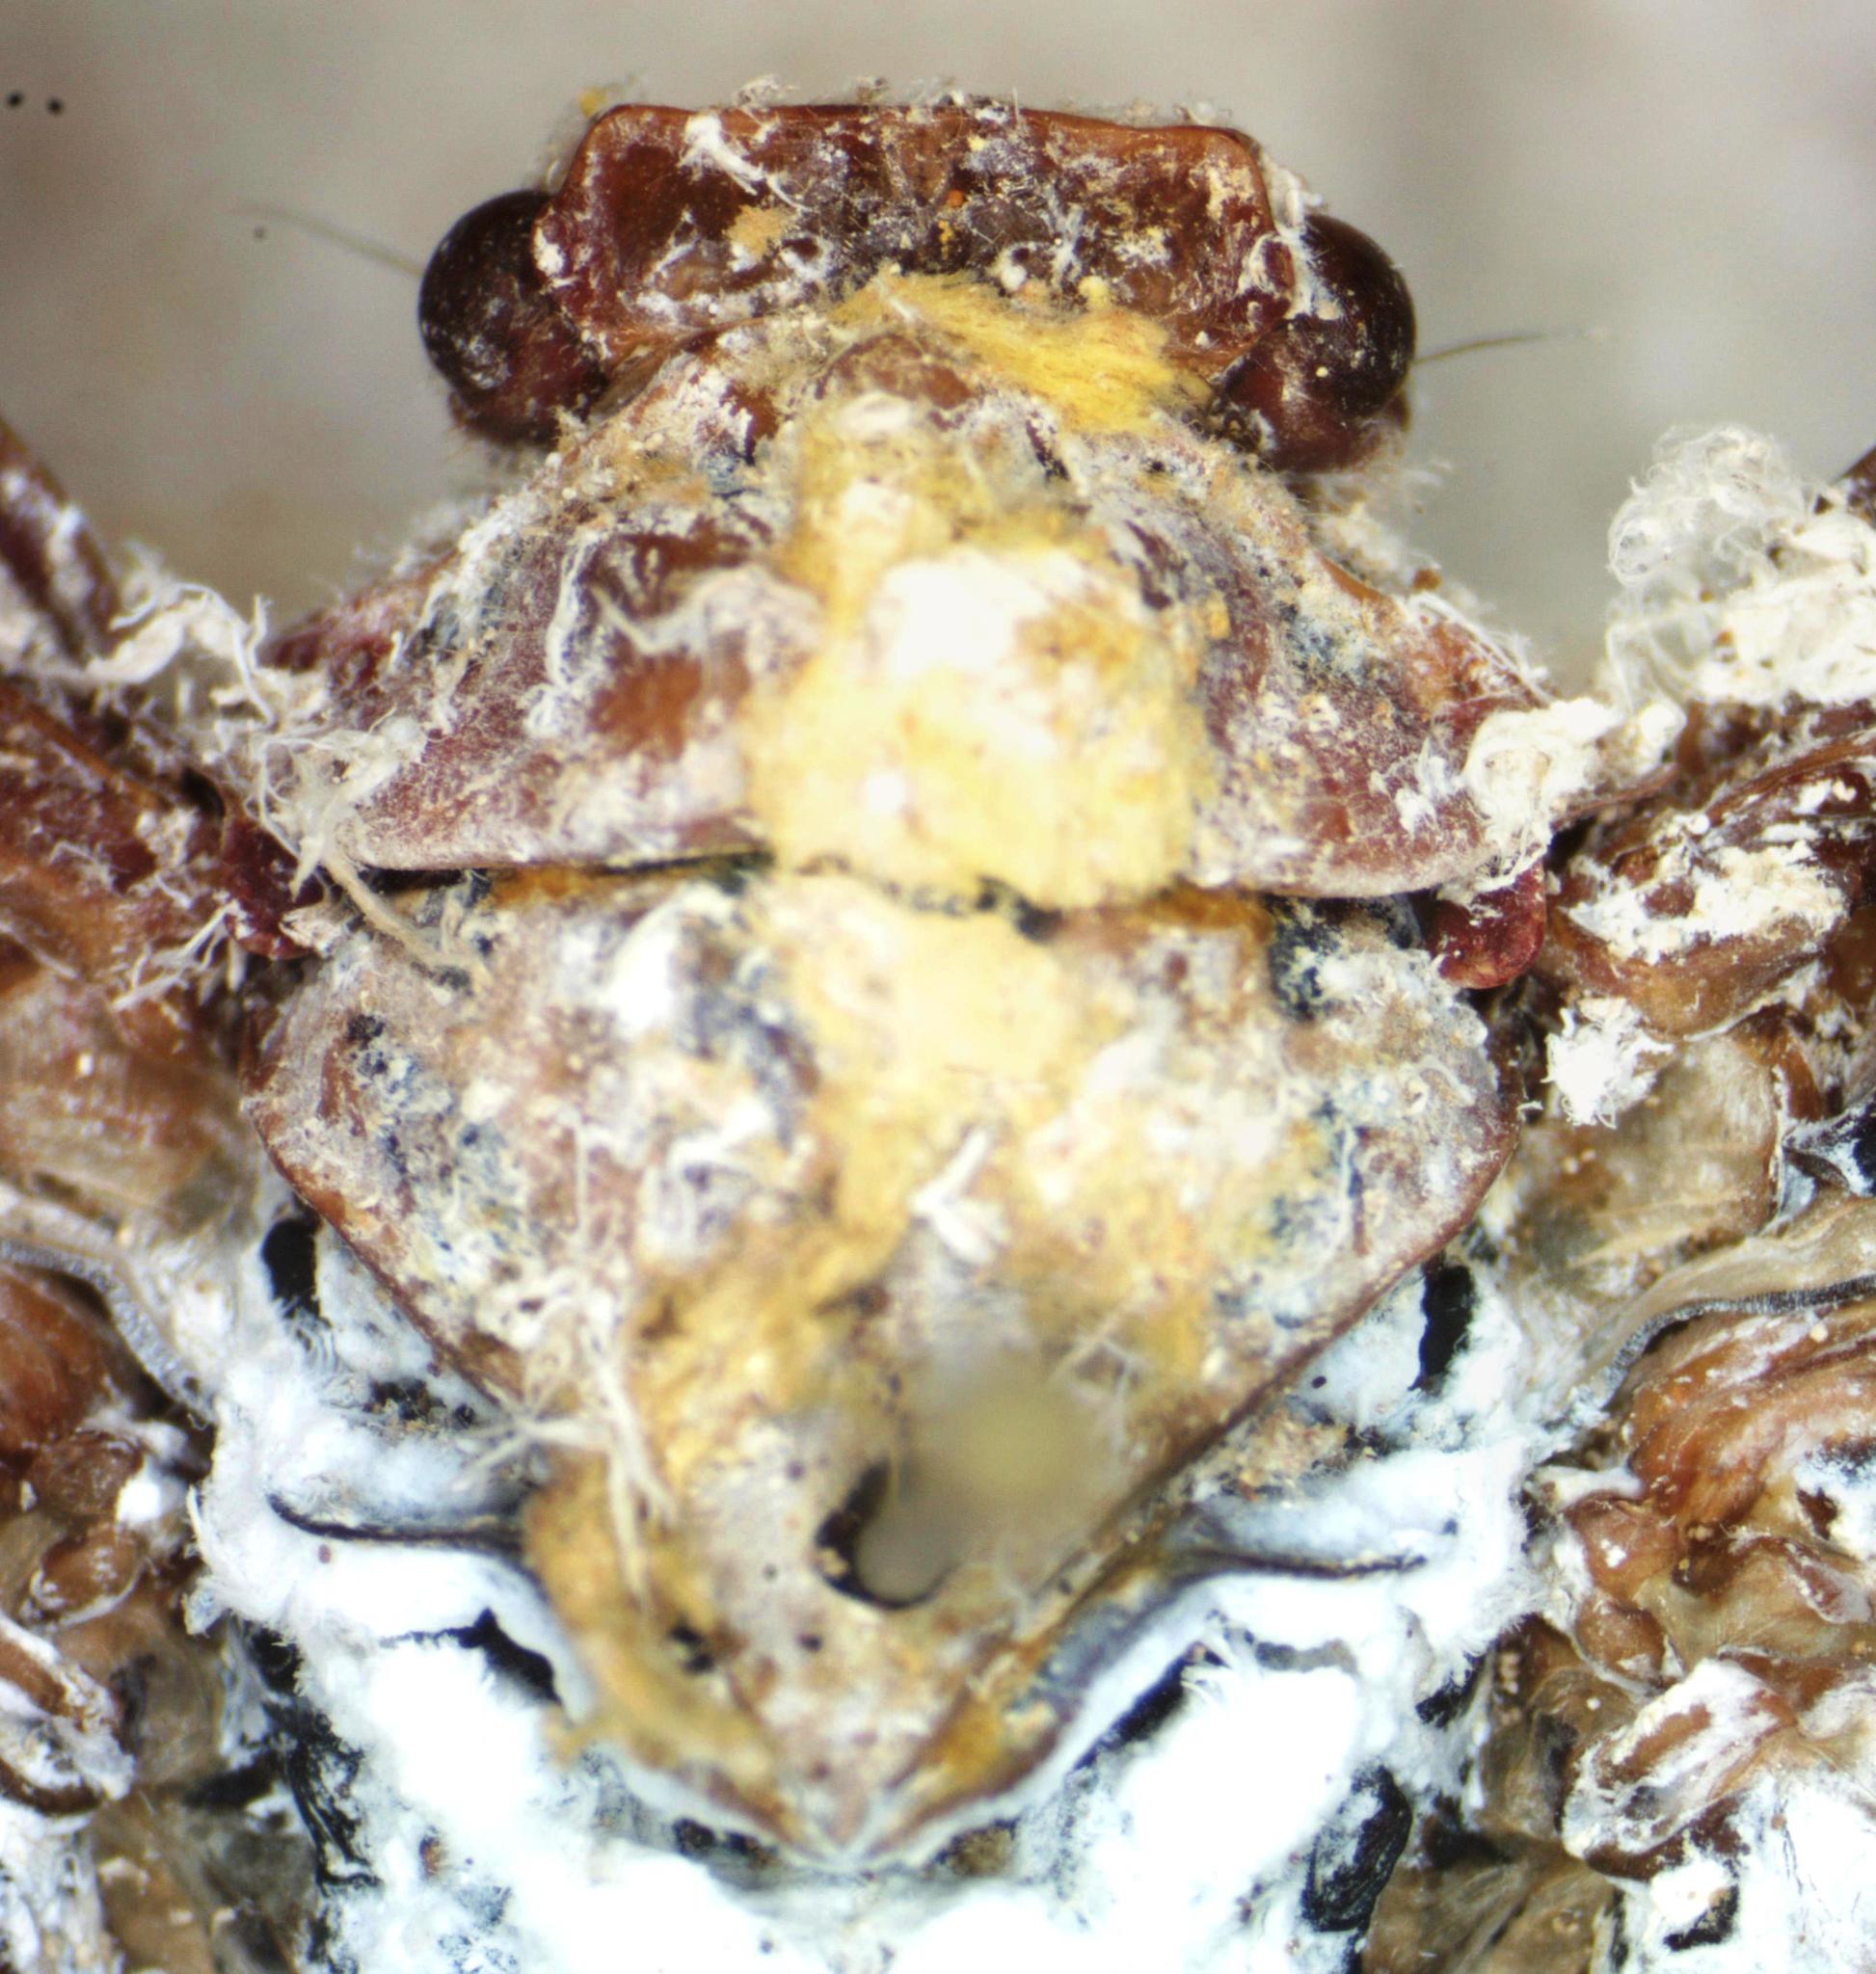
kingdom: Animalia
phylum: Arthropoda
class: Insecta
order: Hemiptera
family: Fulgoridae
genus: Cerogenes
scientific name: Cerogenes auricoma
